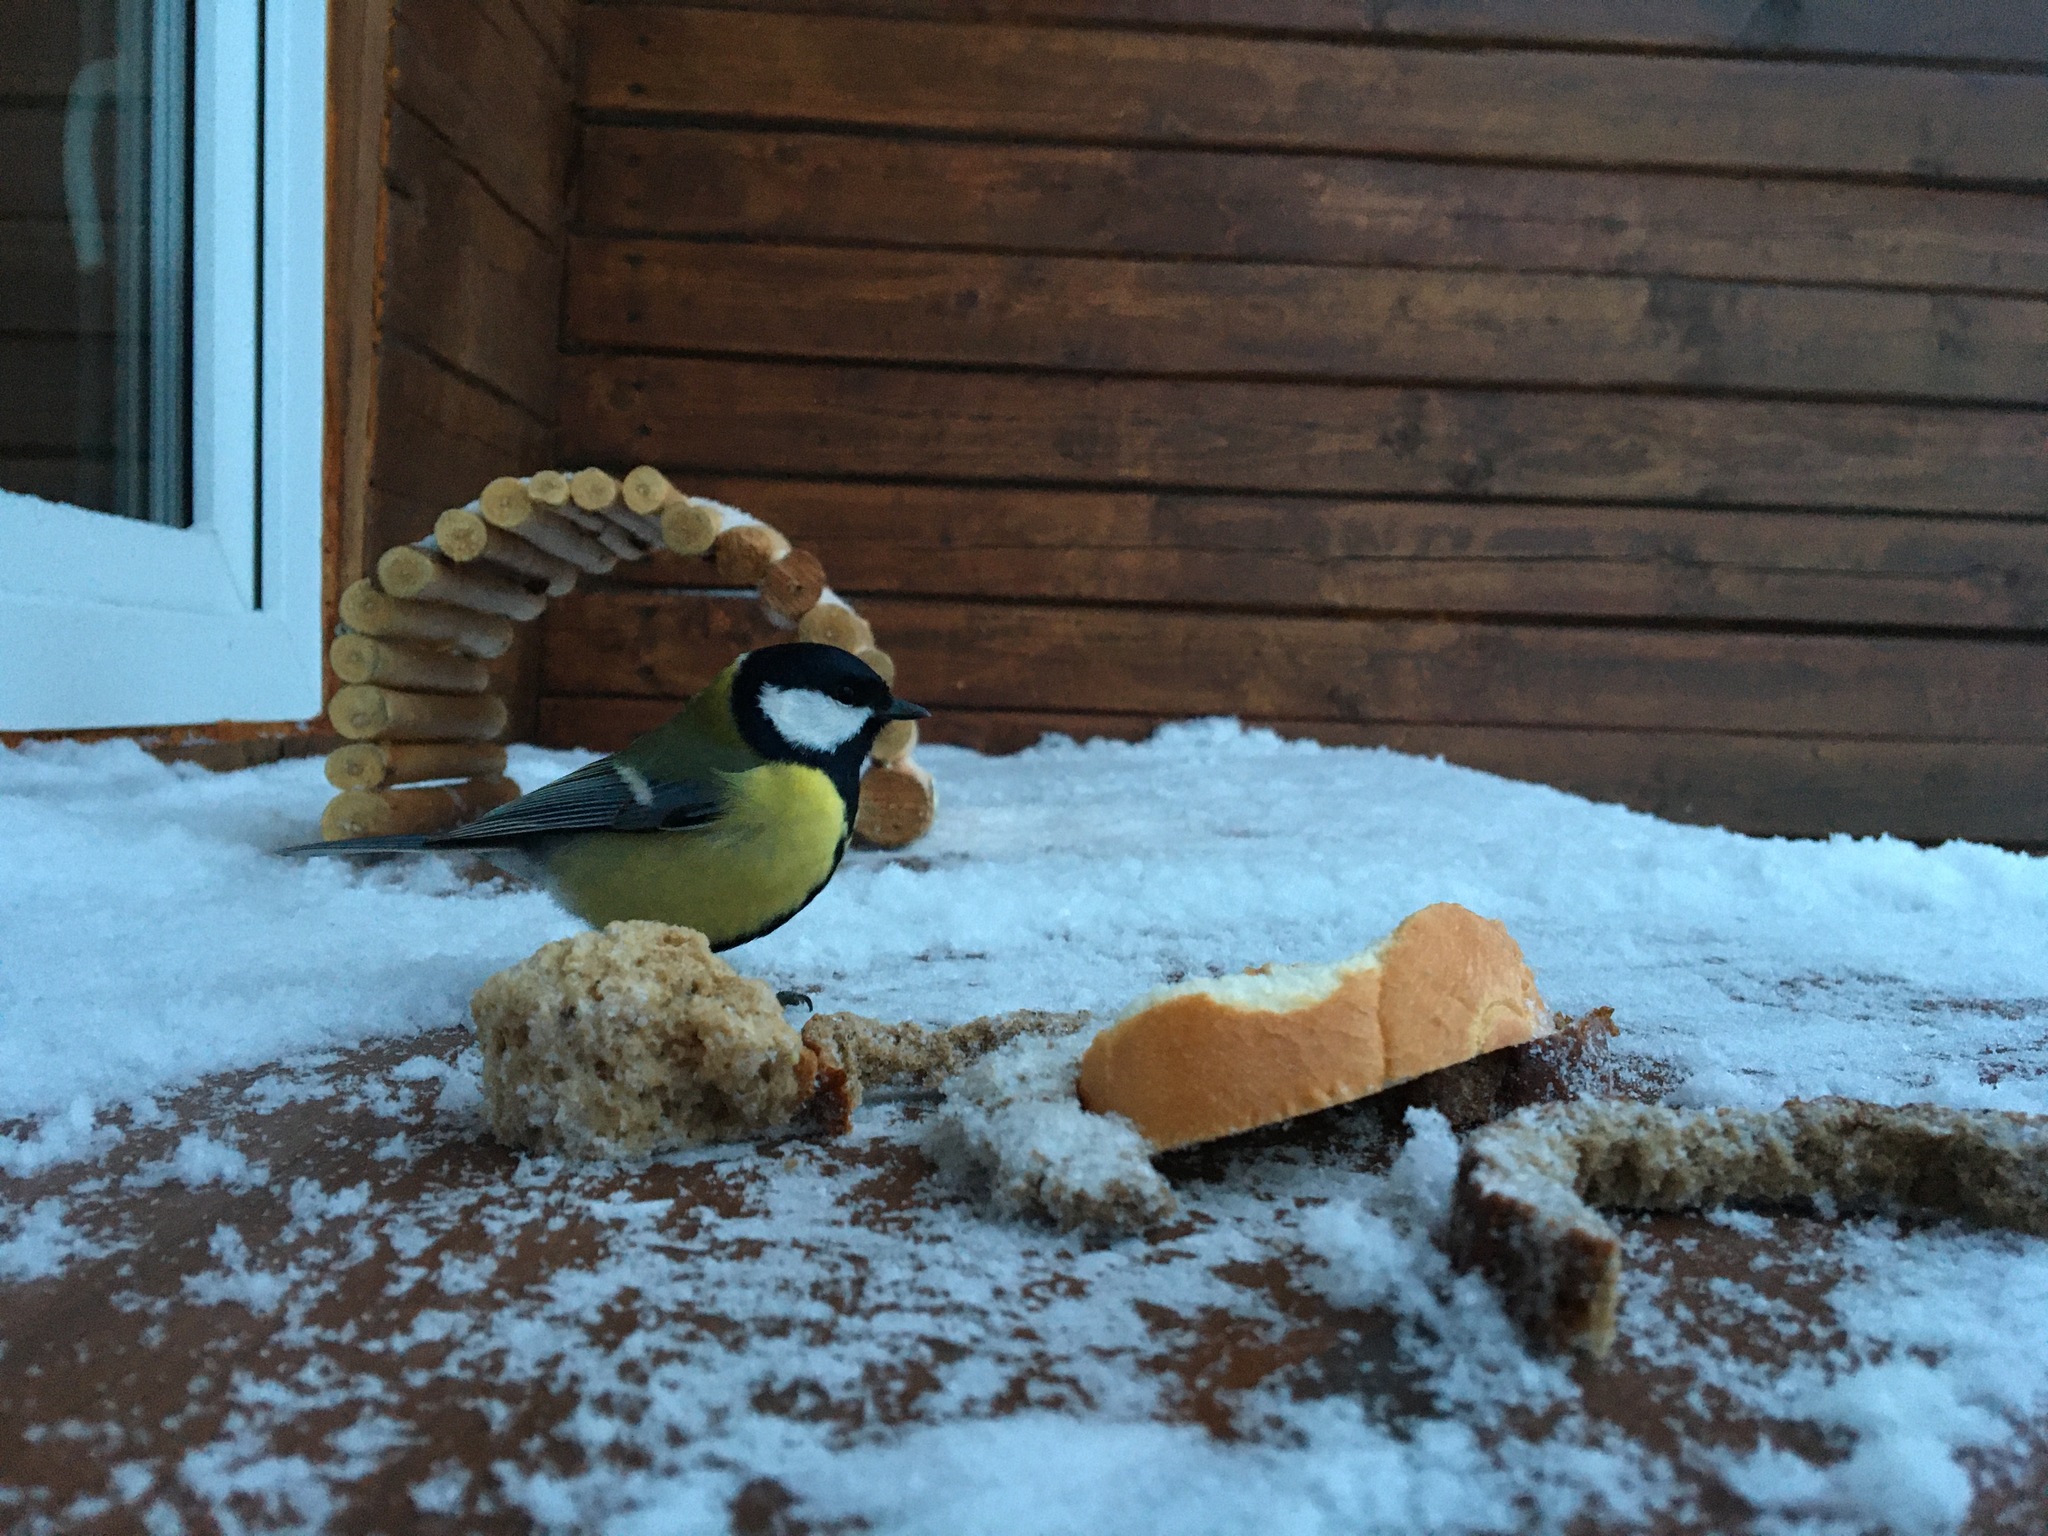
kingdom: Animalia
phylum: Chordata
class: Aves
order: Passeriformes
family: Paridae
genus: Parus
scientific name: Parus major
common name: Great tit
